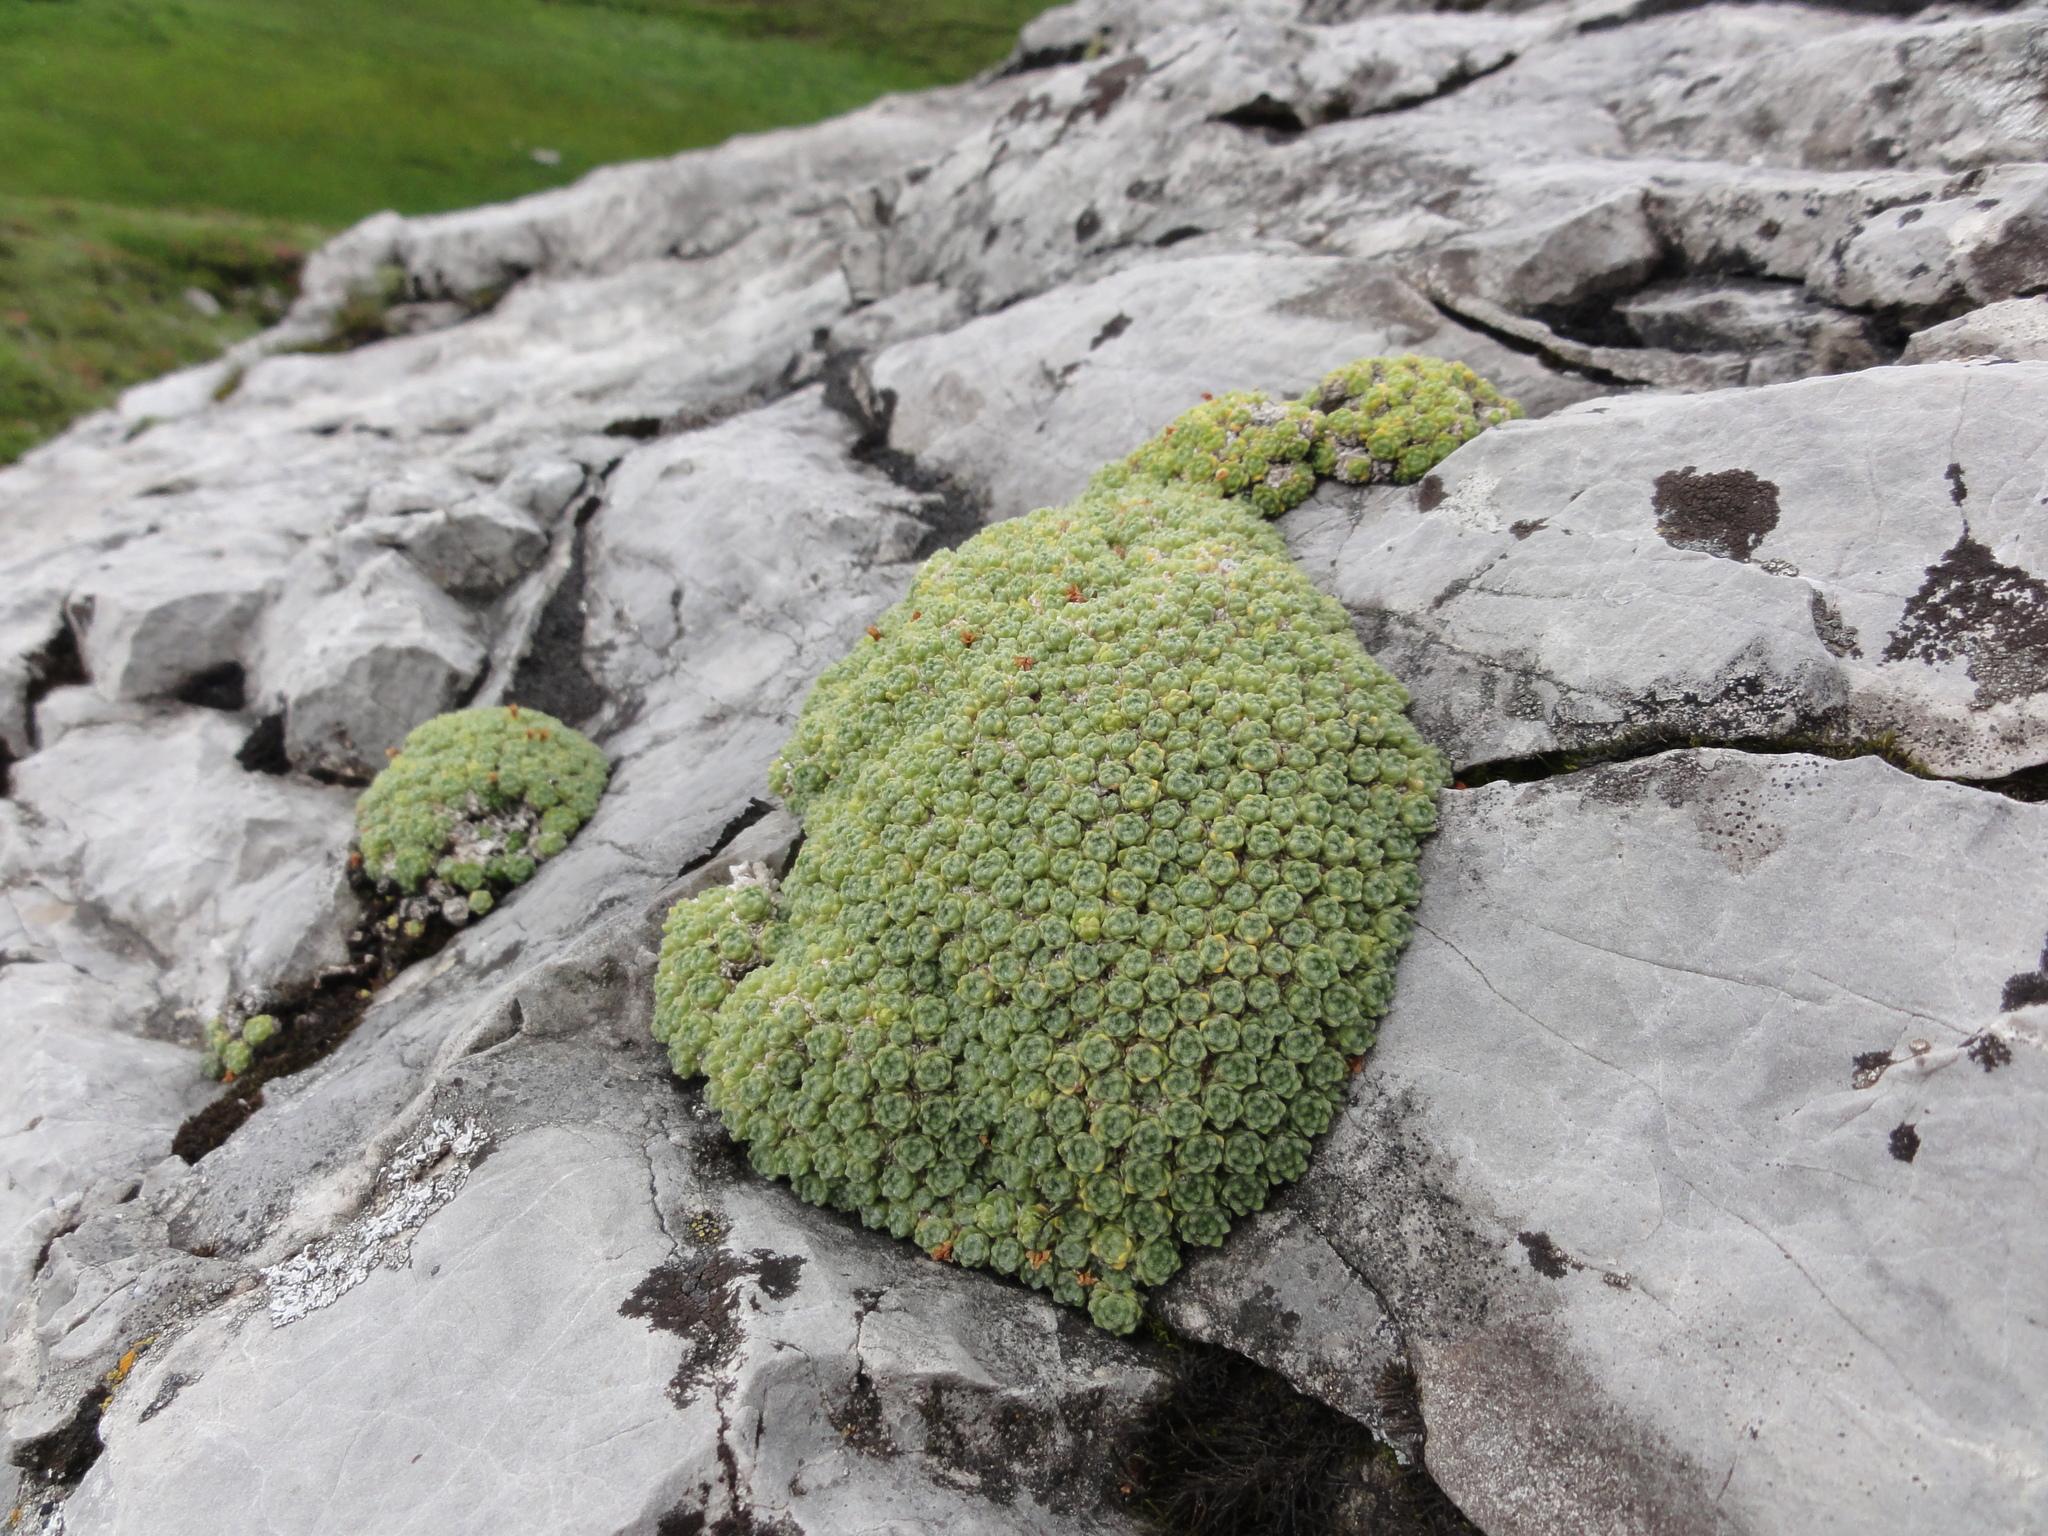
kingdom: Plantae
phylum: Tracheophyta
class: Magnoliopsida
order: Ericales
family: Primulaceae
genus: Androsace
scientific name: Androsace helvetica
